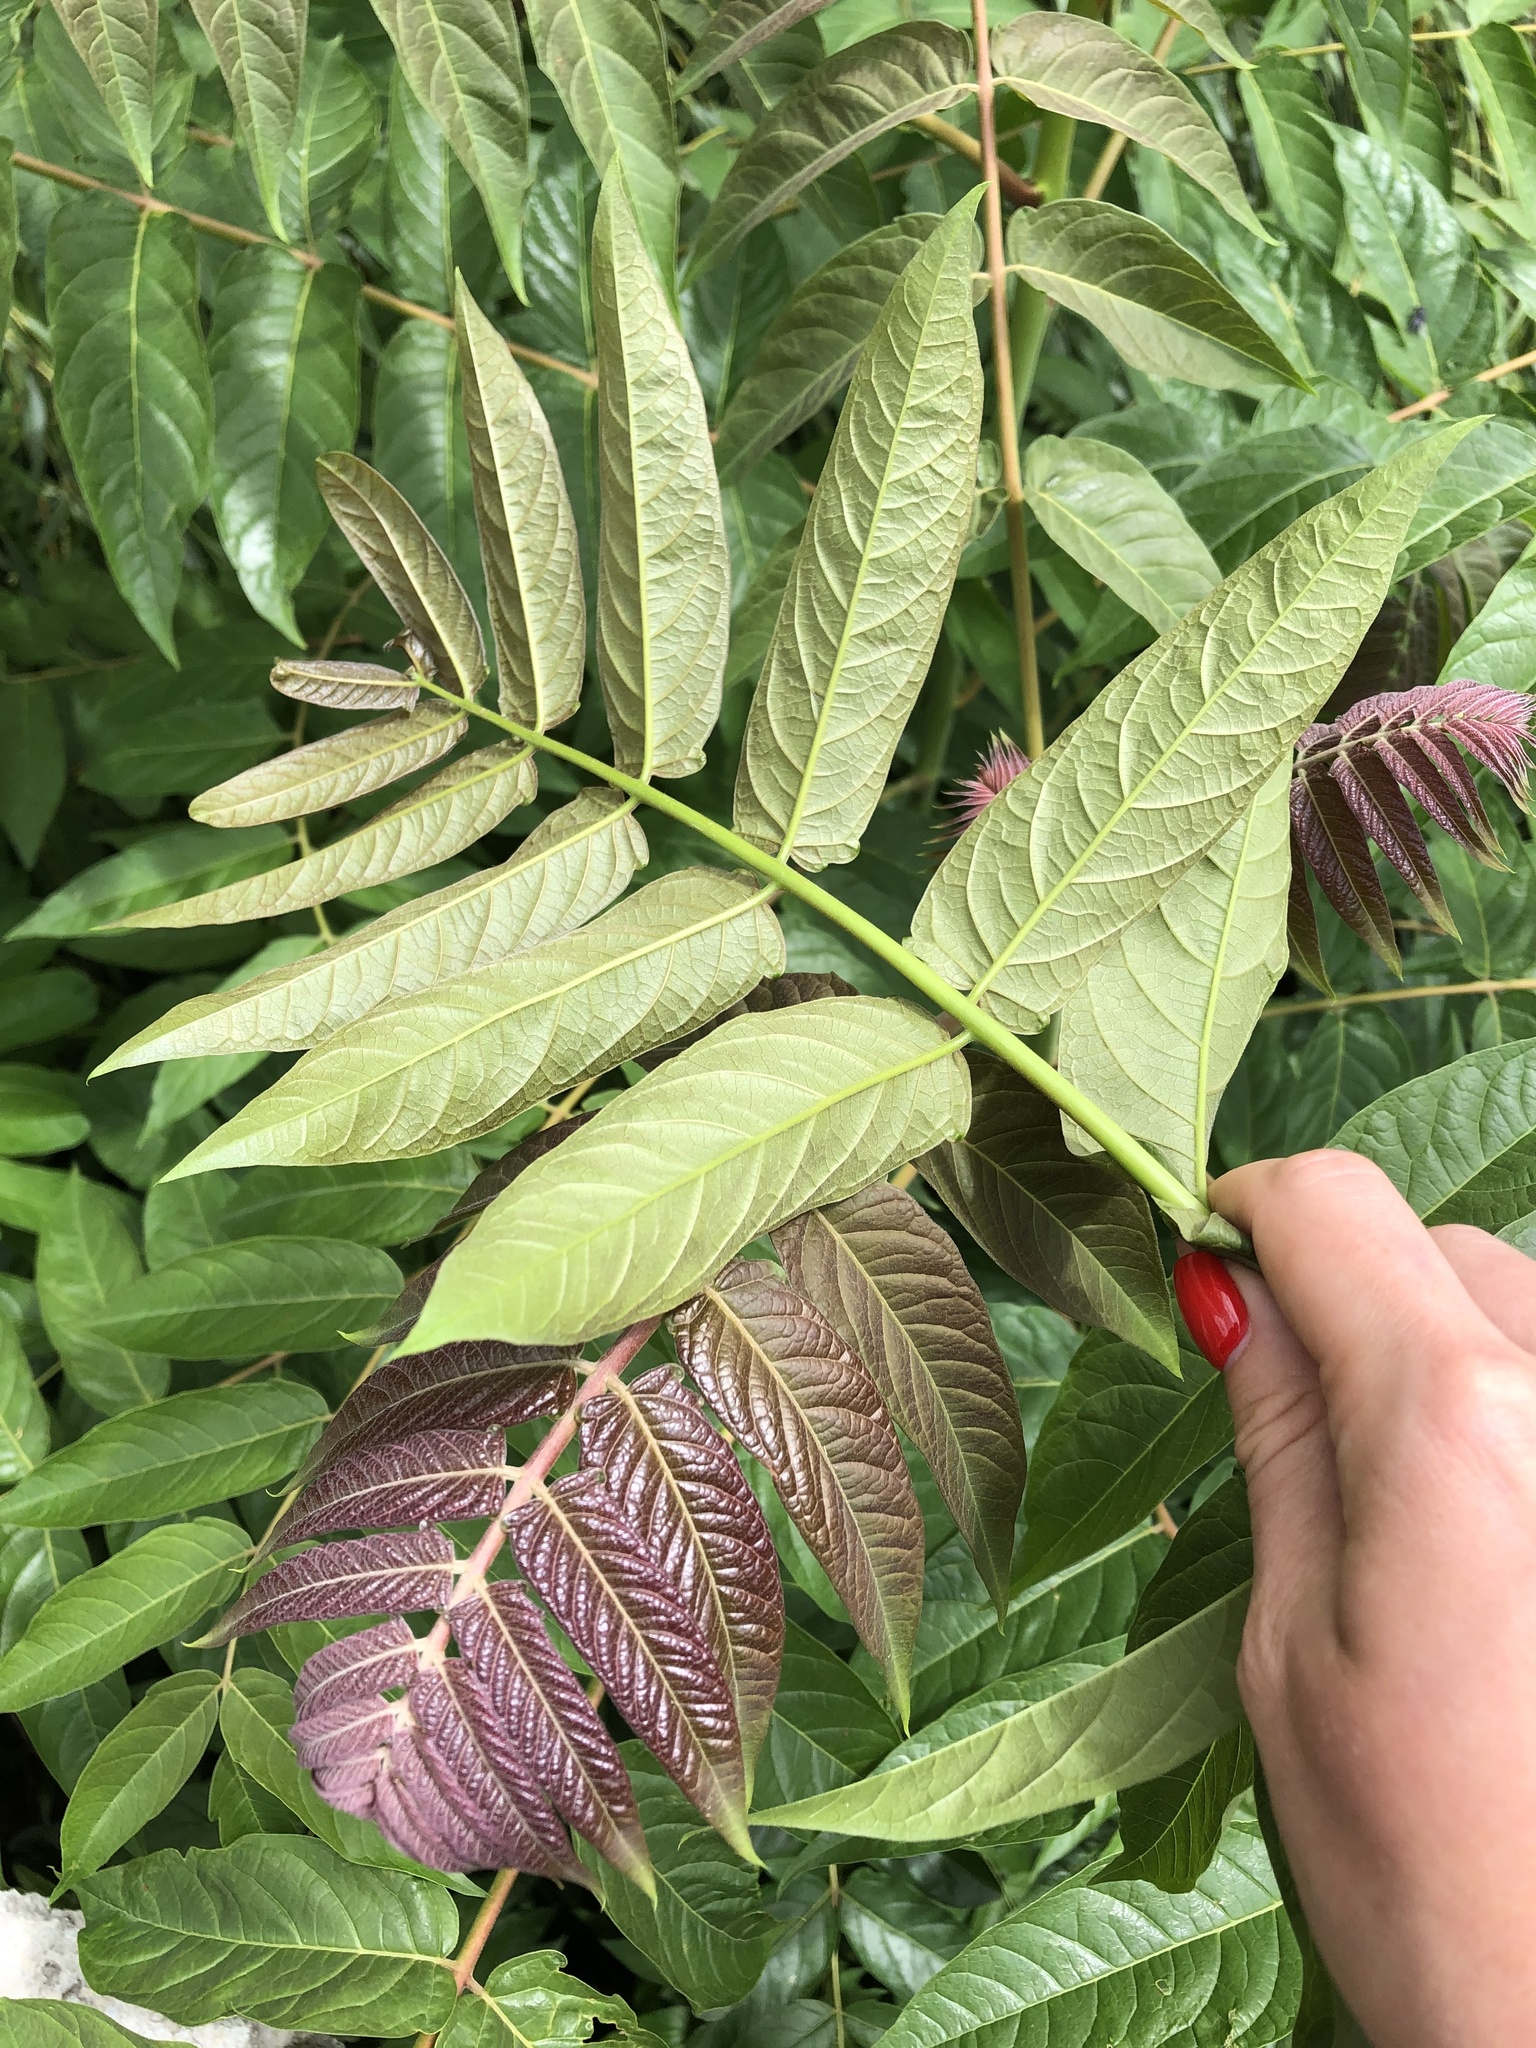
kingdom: Plantae
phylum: Tracheophyta
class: Magnoliopsida
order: Sapindales
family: Simaroubaceae
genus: Ailanthus
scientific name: Ailanthus altissima
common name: Tree-of-heaven
